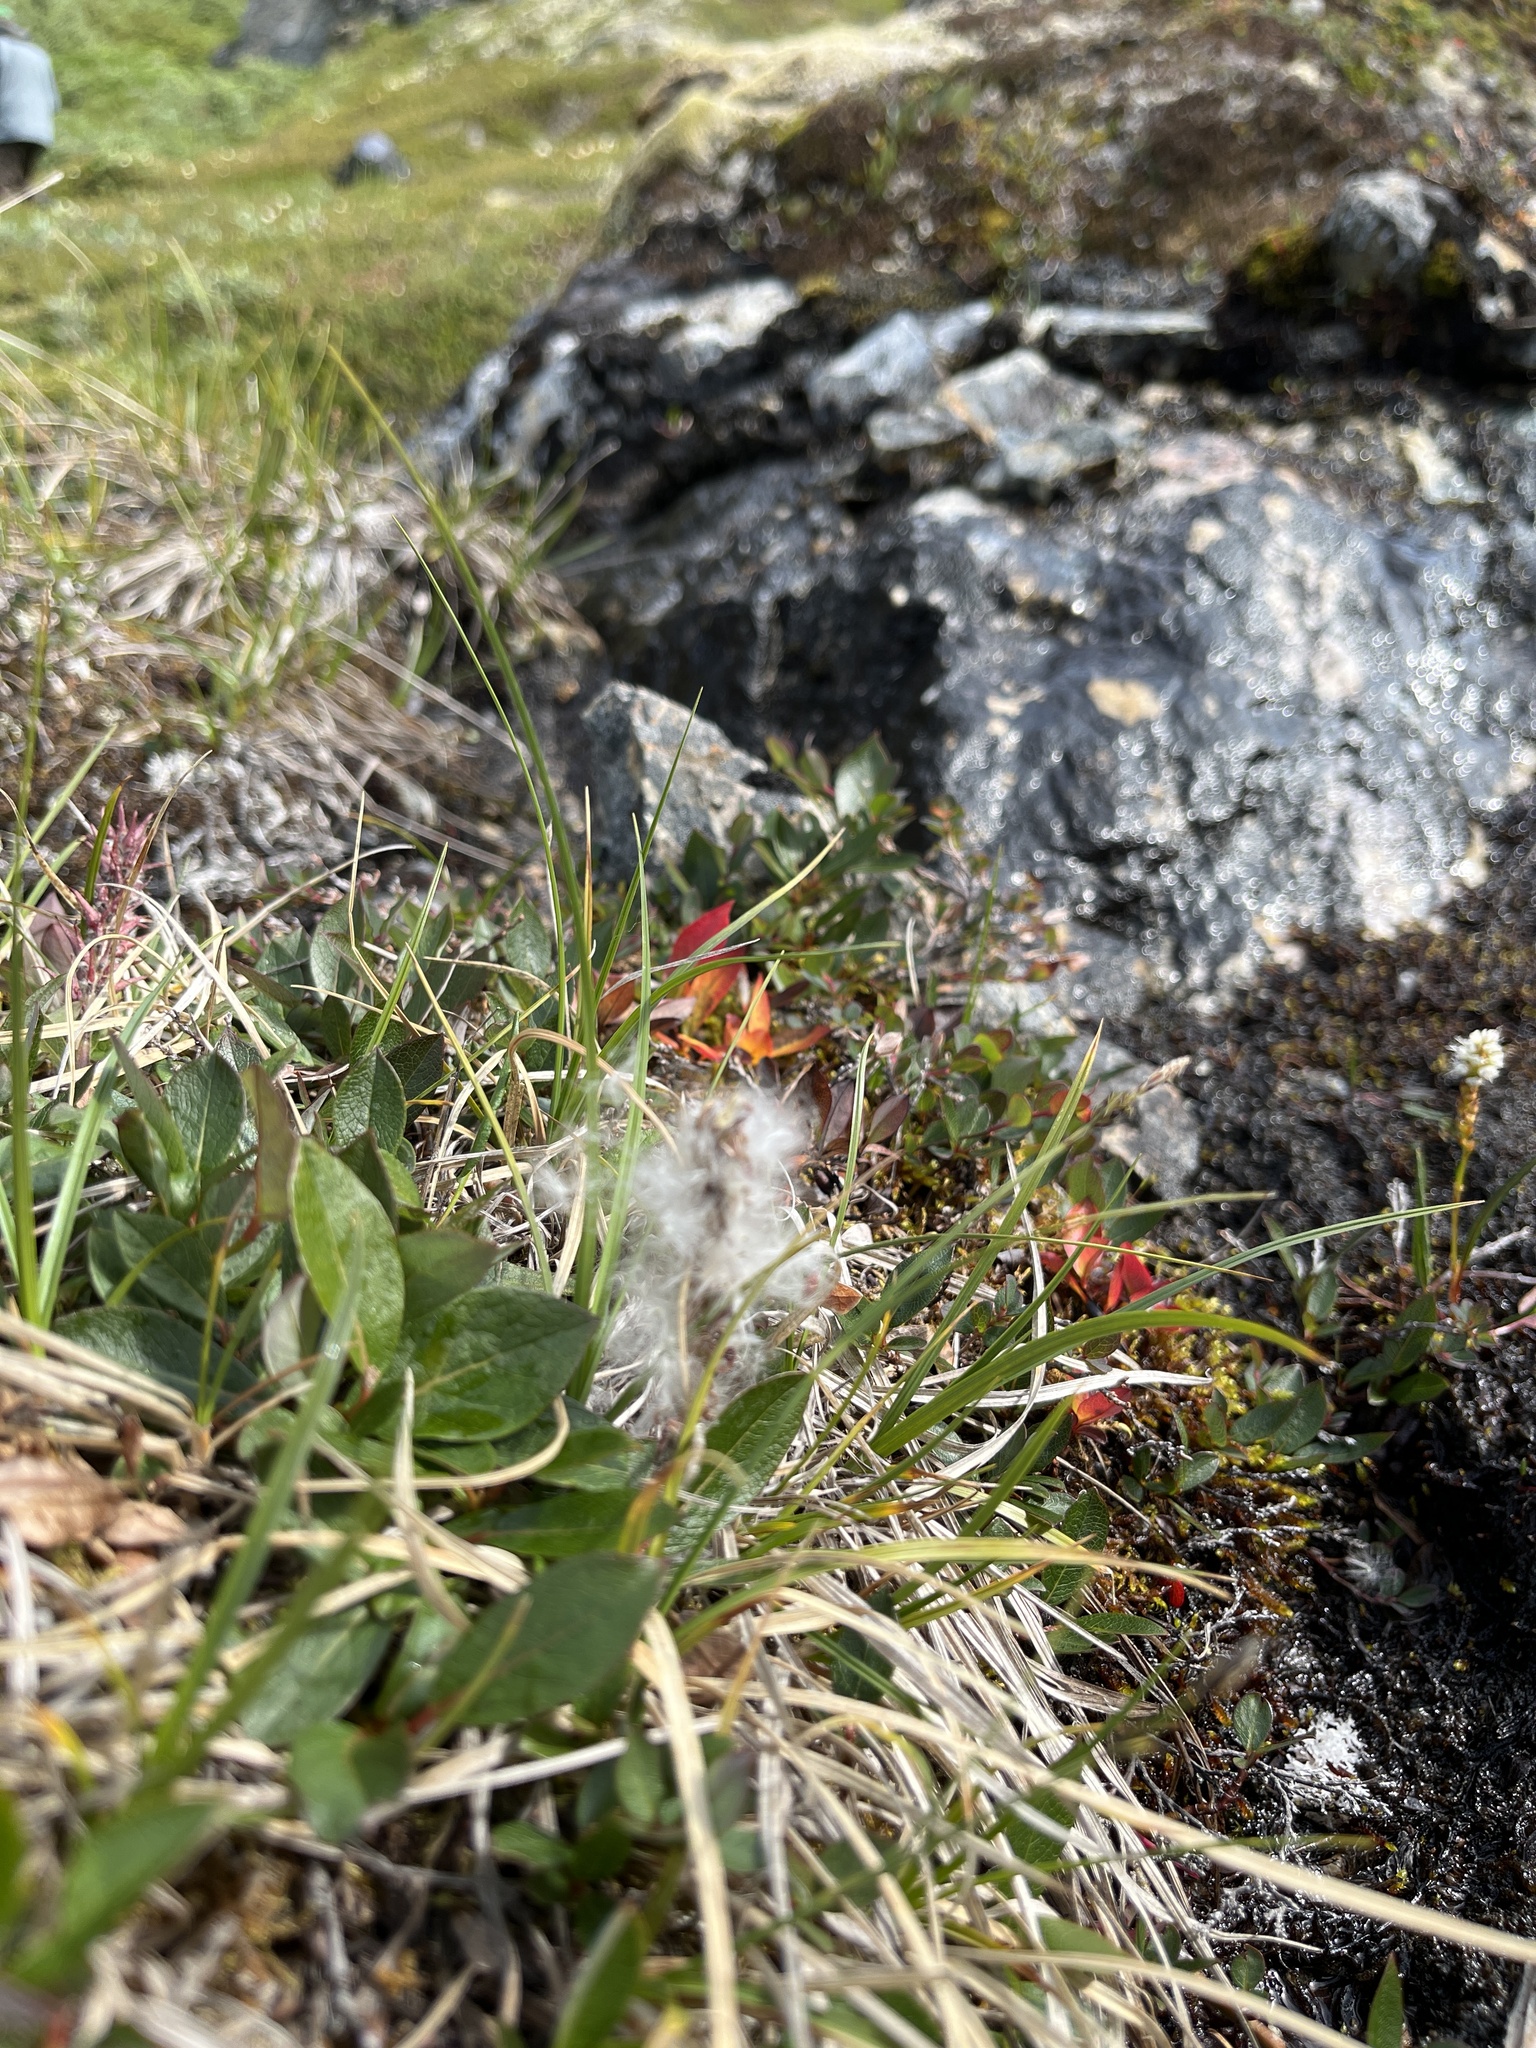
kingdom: Plantae
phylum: Tracheophyta
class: Magnoliopsida
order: Malpighiales
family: Salicaceae
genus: Salix
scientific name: Salix arctophila
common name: Greenland willow
